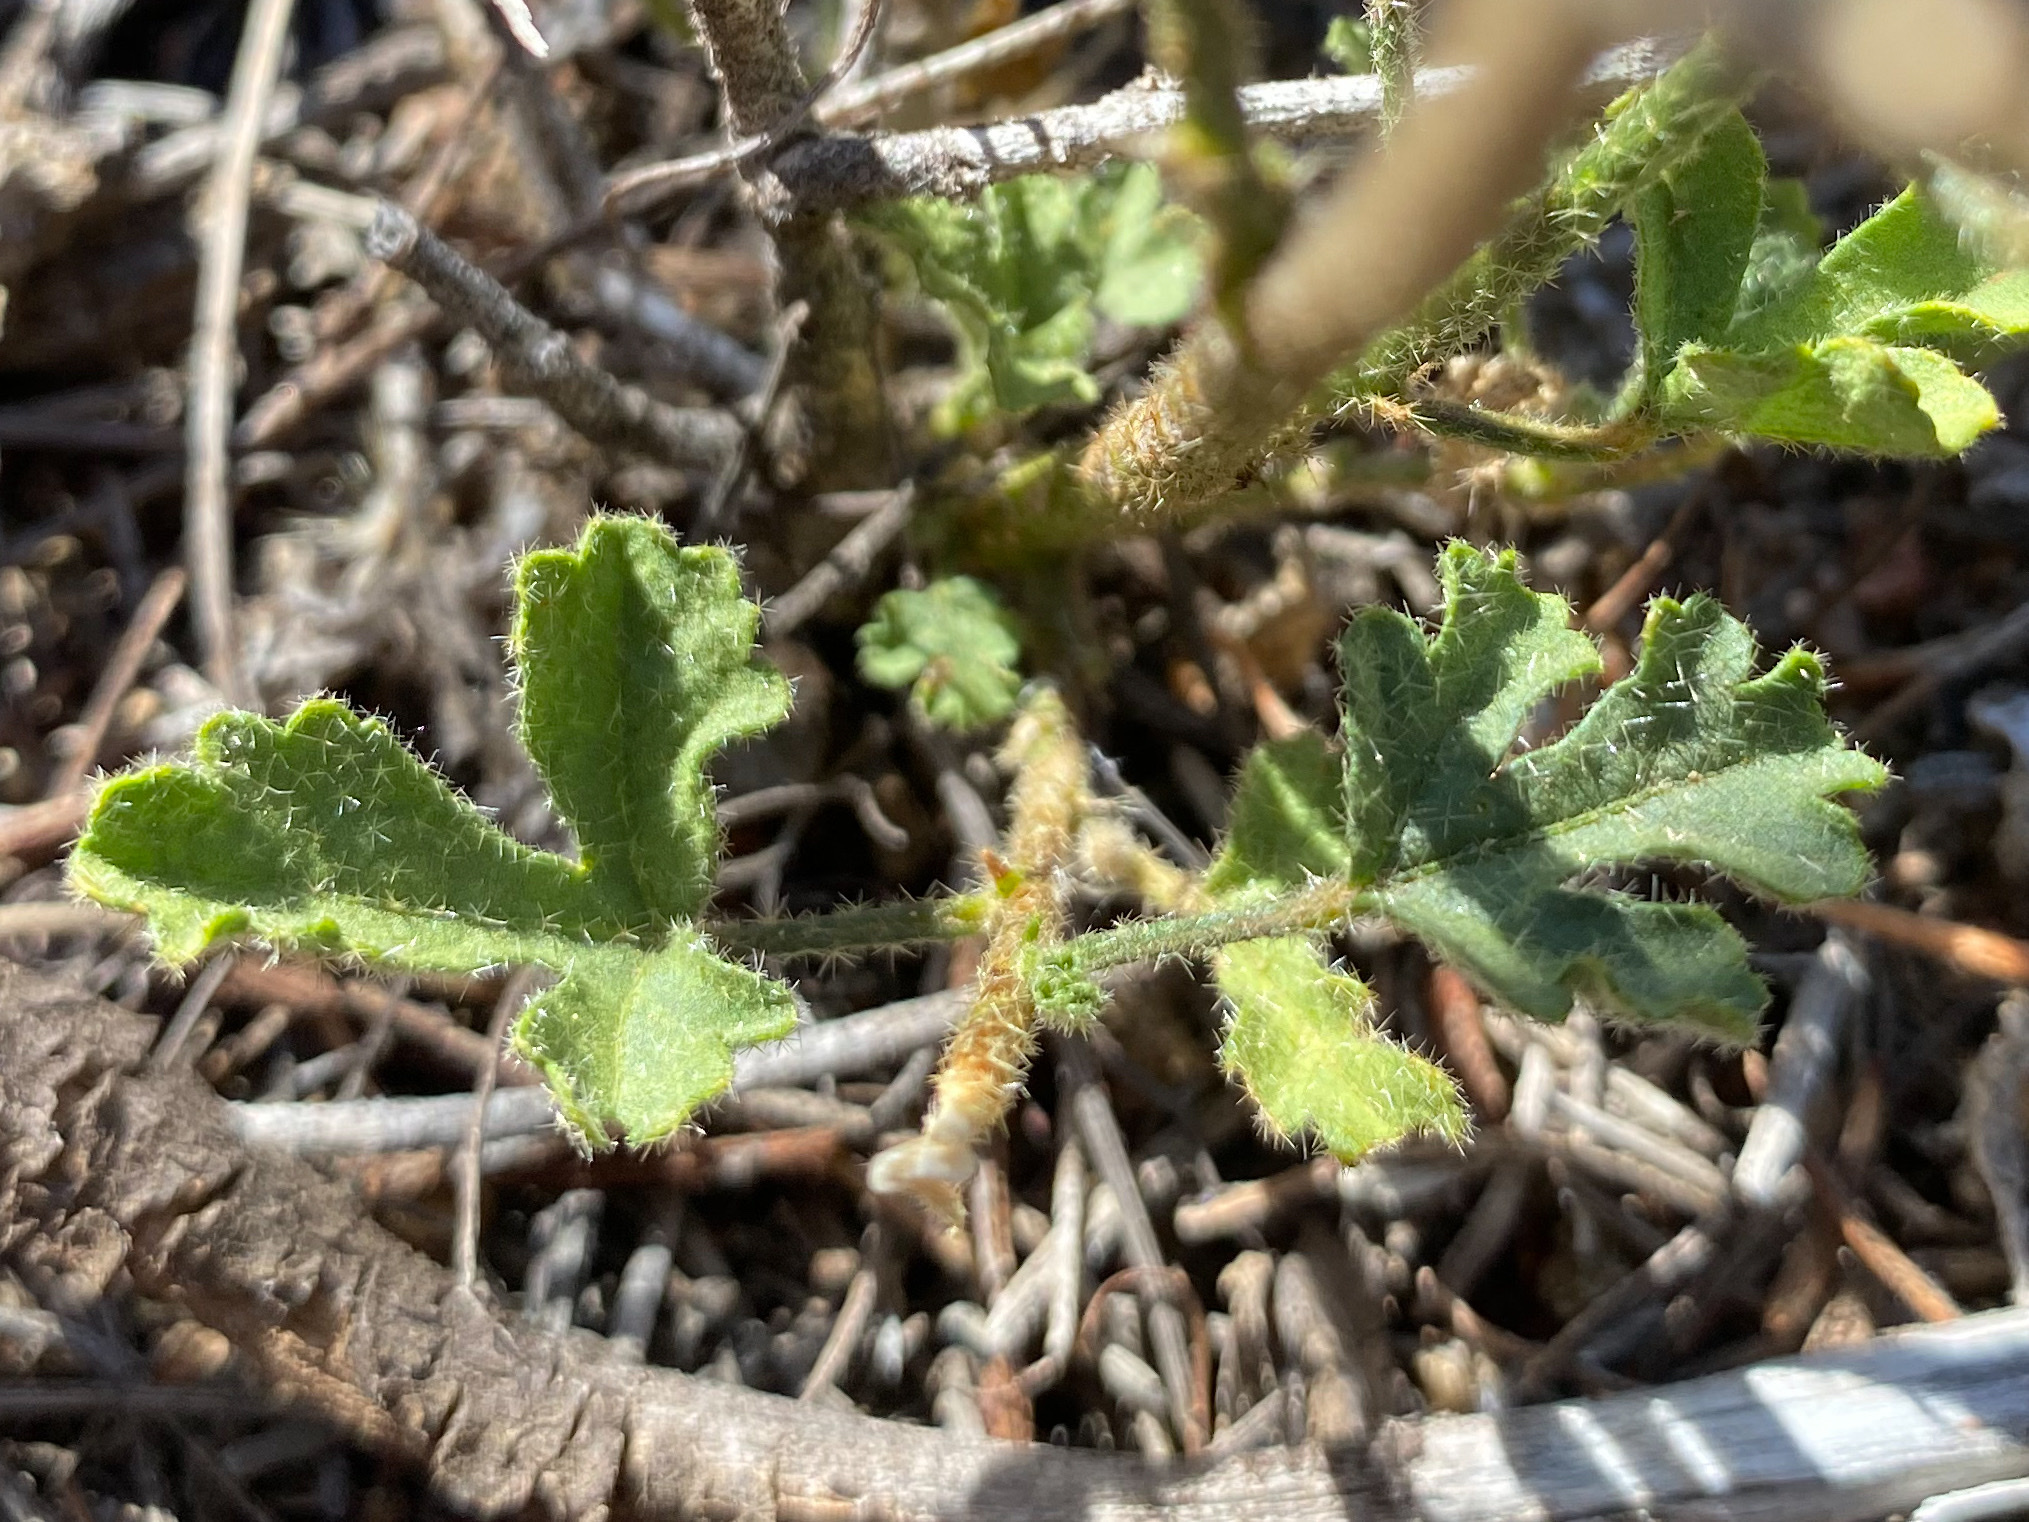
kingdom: Plantae
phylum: Tracheophyta
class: Magnoliopsida
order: Malvales
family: Malvaceae
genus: Hibiscus
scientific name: Hibiscus drummondii
